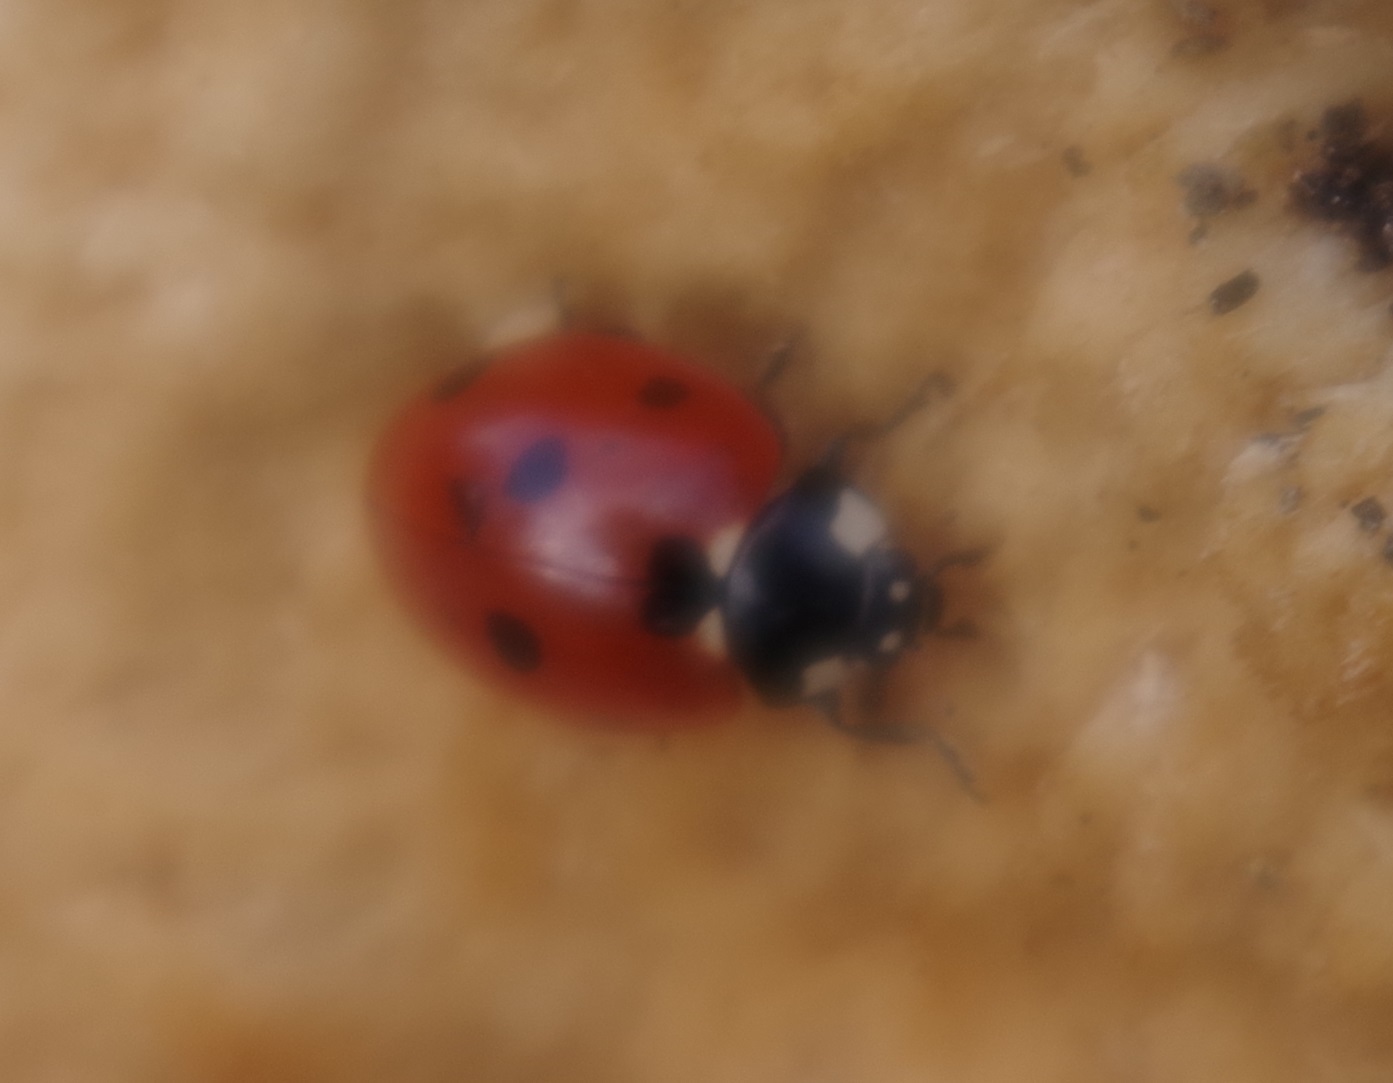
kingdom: Animalia
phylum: Arthropoda
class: Insecta
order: Coleoptera
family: Coccinellidae
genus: Coccinella
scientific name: Coccinella septempunctata
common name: Sevenspotted lady beetle
